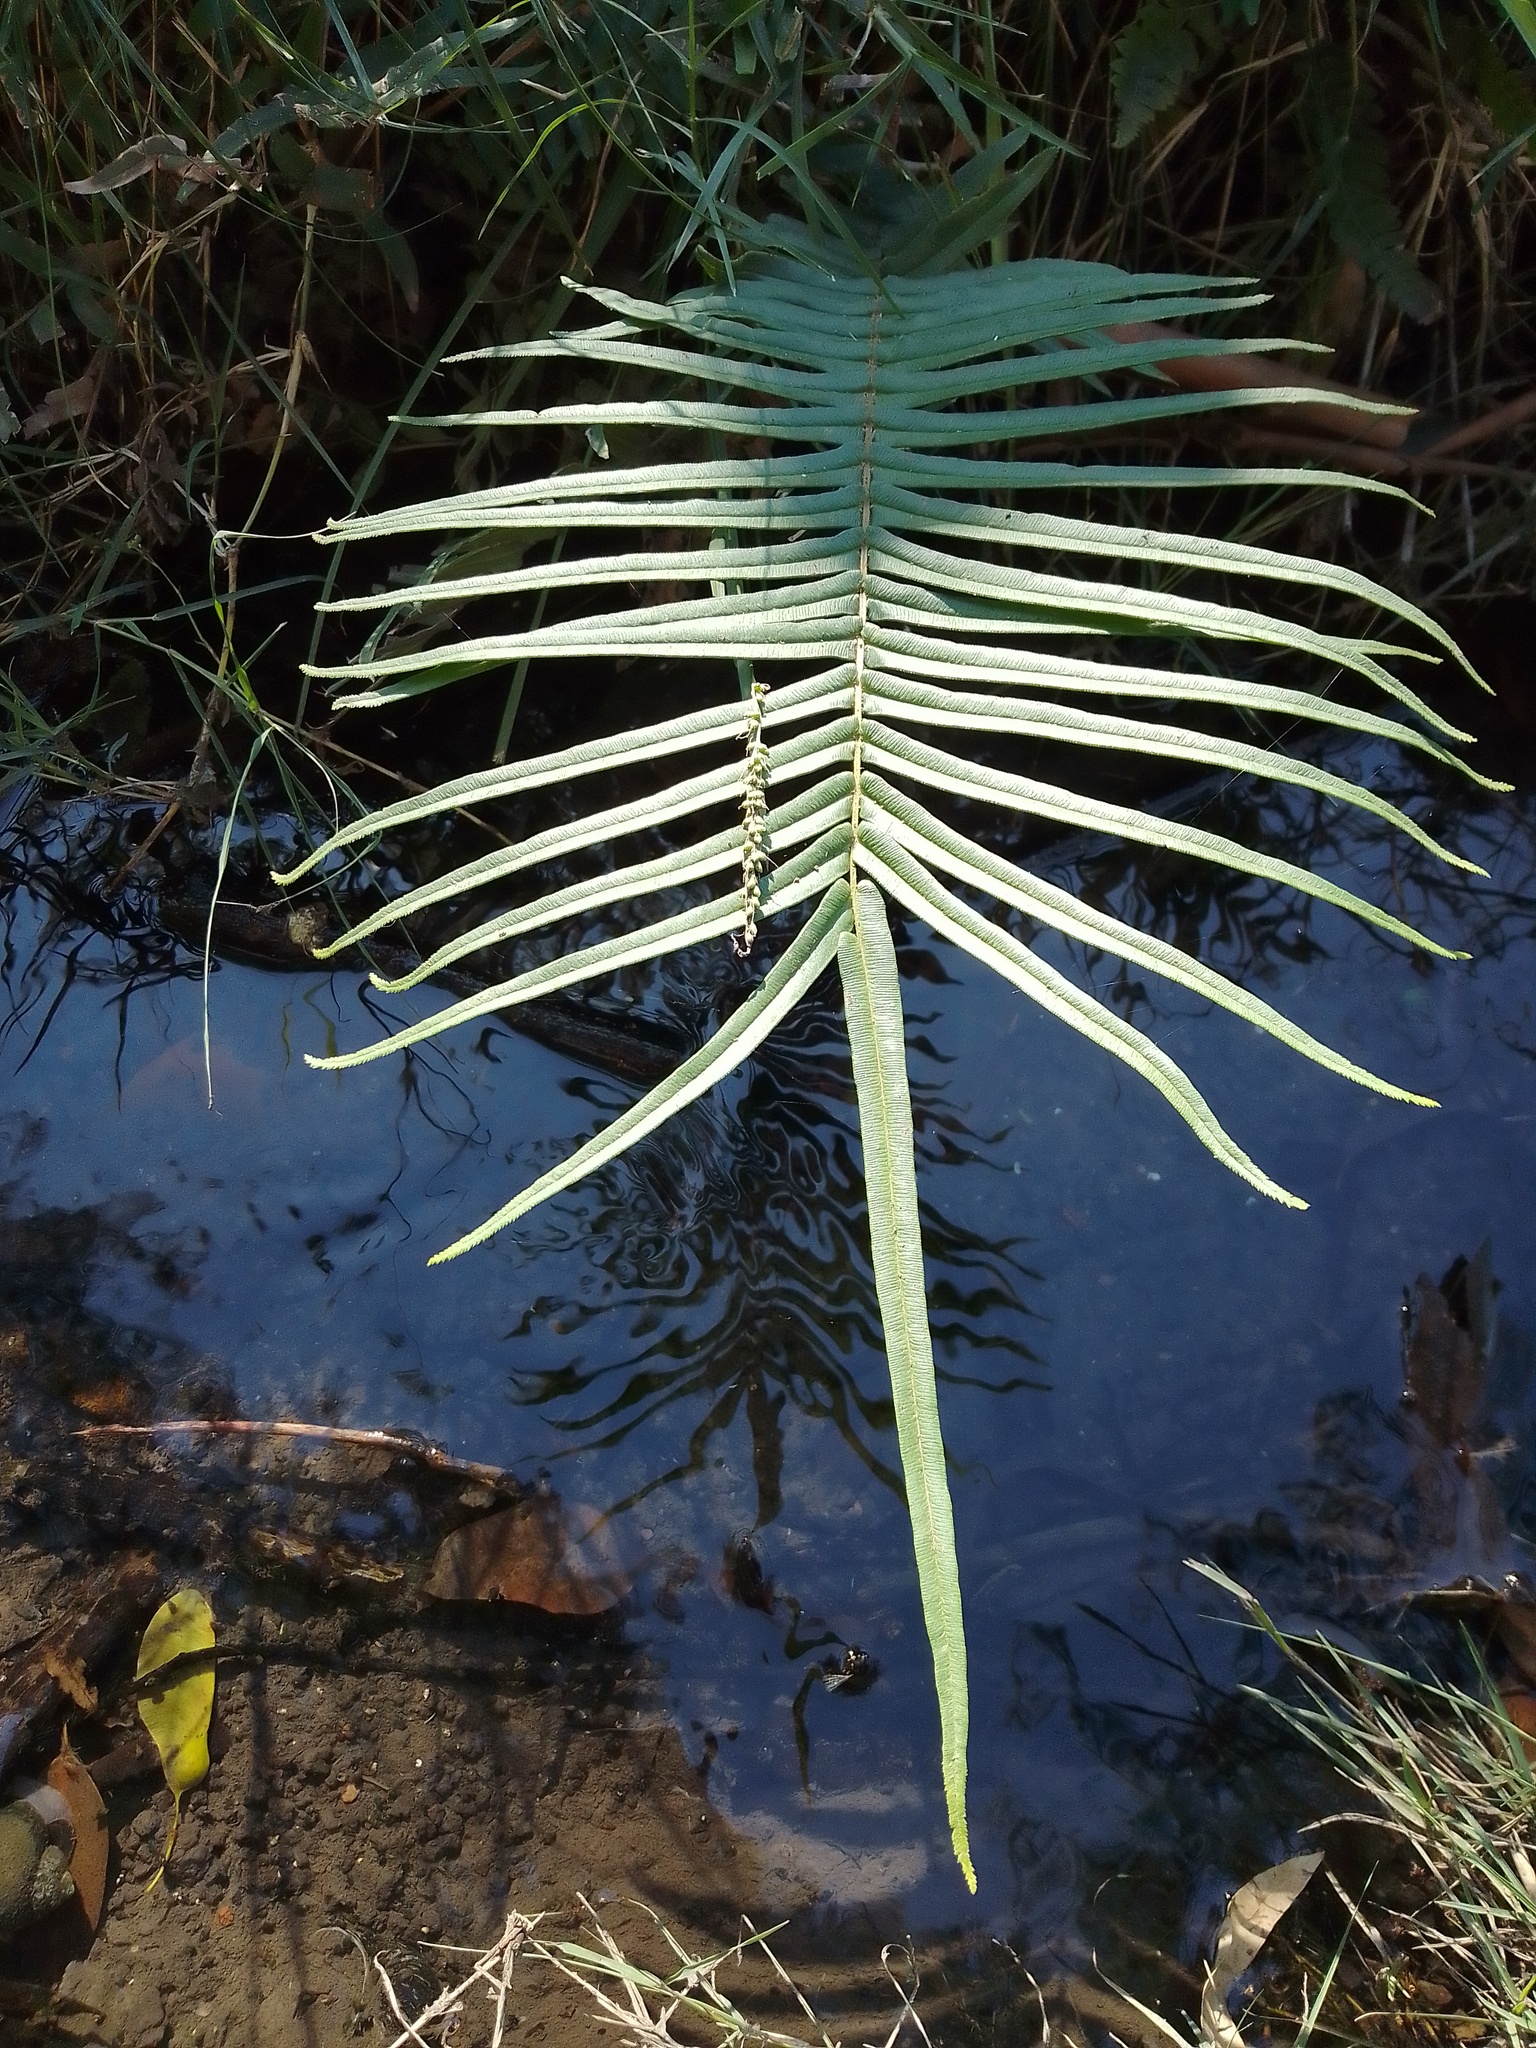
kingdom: Plantae
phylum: Tracheophyta
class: Polypodiopsida
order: Polypodiales
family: Pteridaceae
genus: Pteris
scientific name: Pteris vittata
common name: Ladder brake
